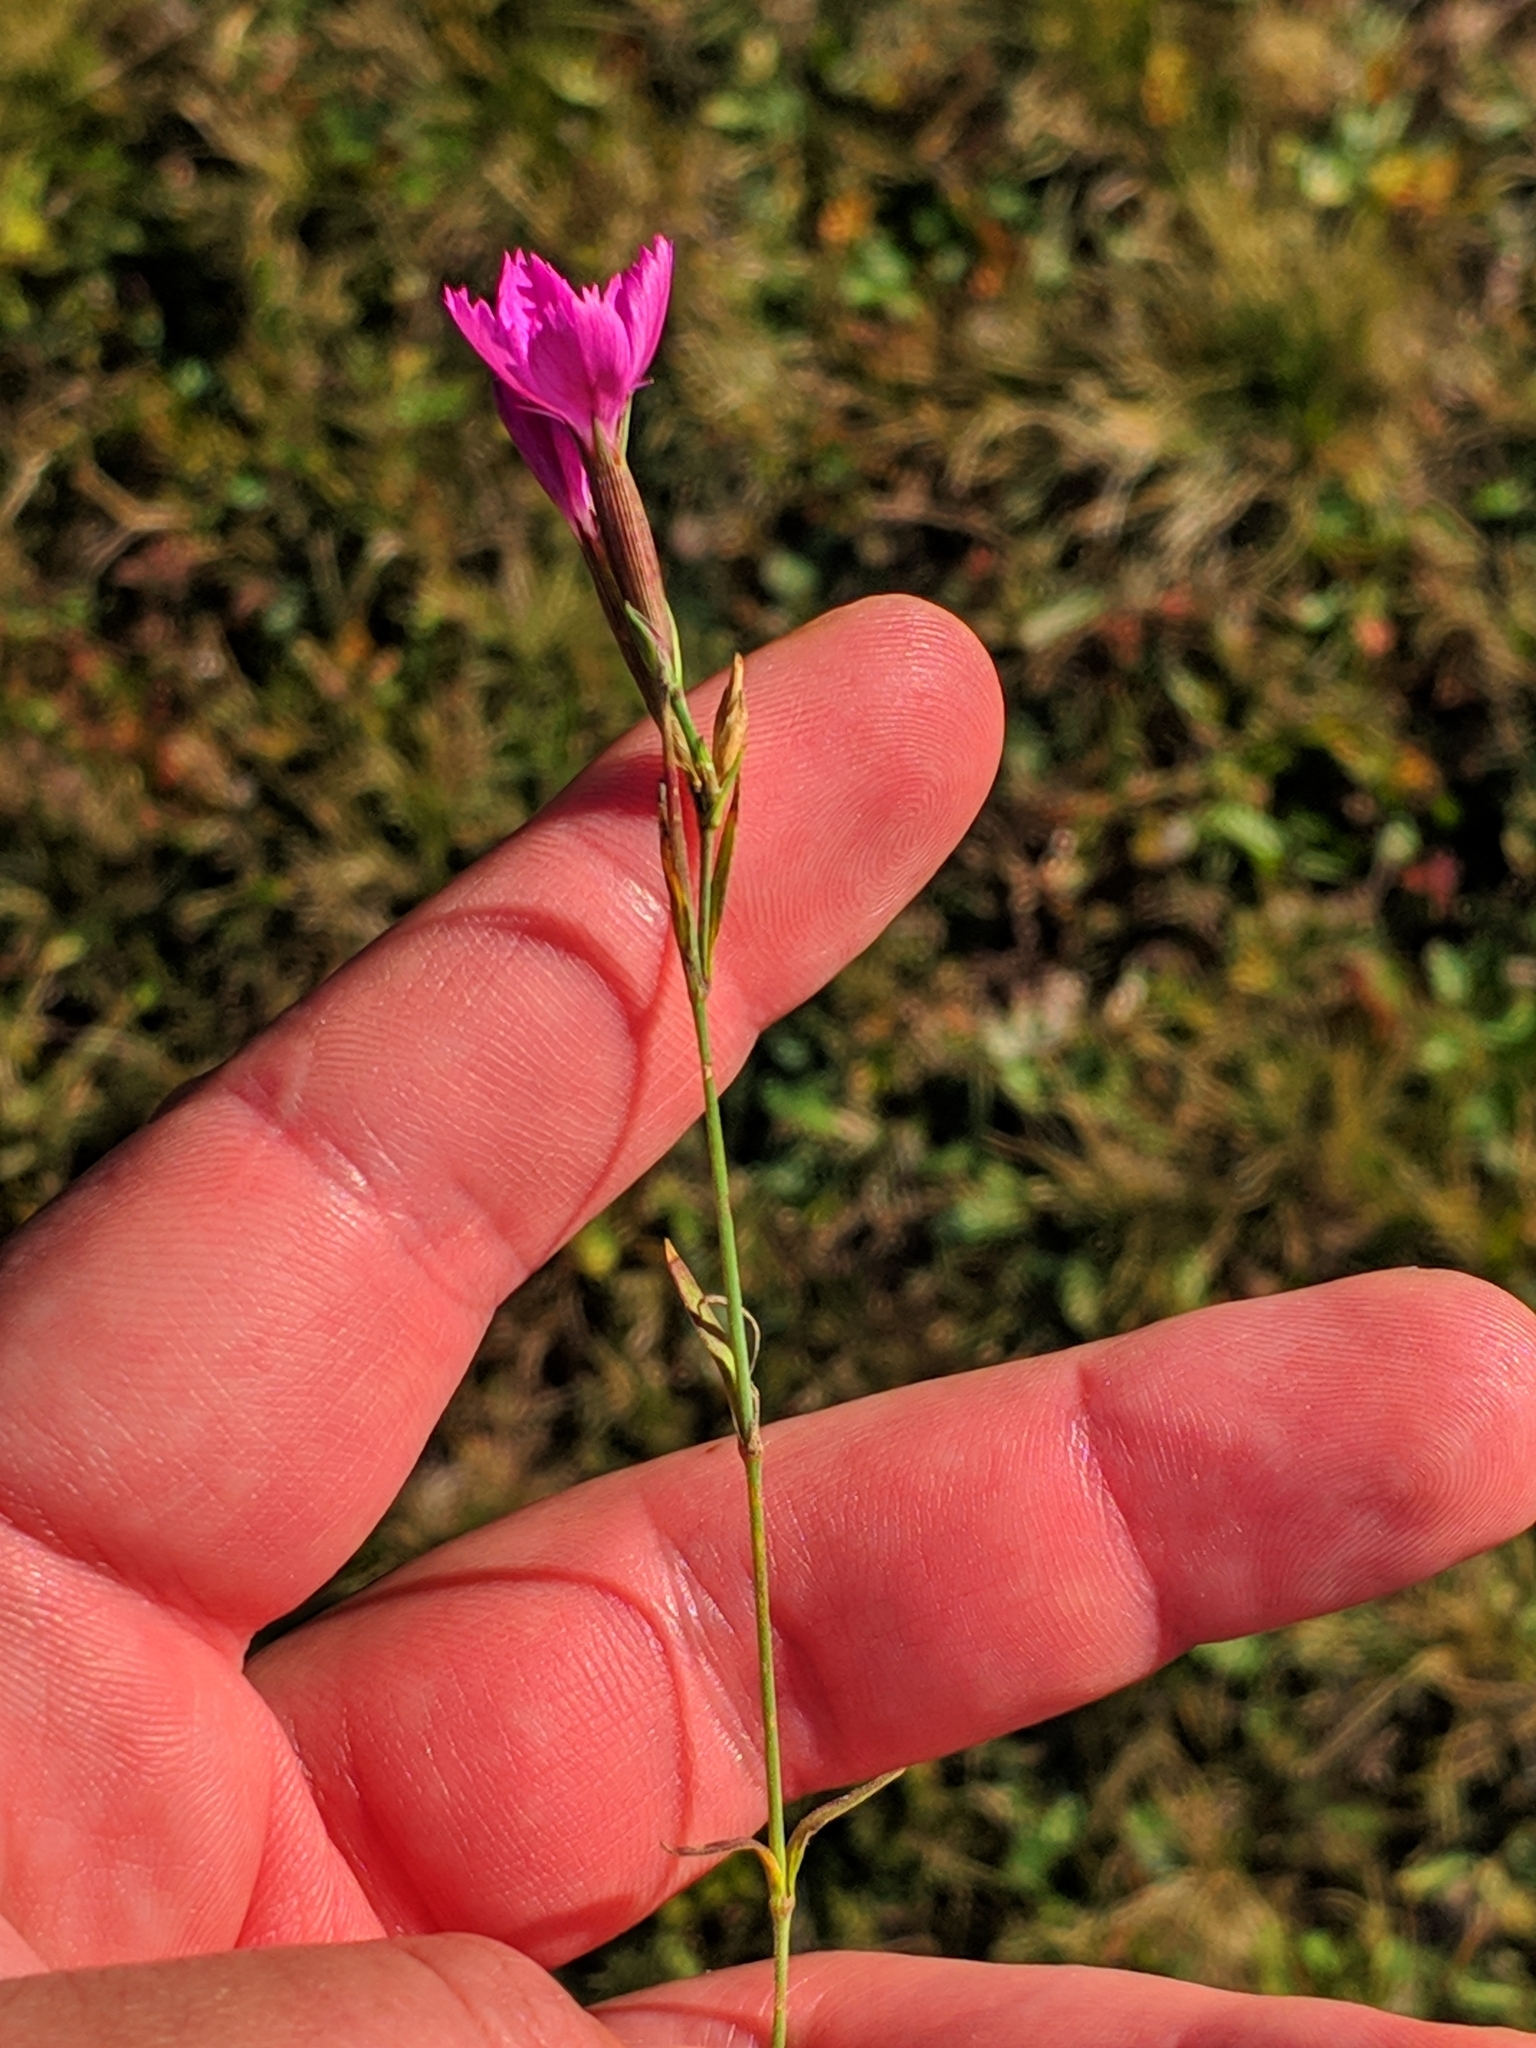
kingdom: Plantae
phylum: Tracheophyta
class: Magnoliopsida
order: Caryophyllales
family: Caryophyllaceae
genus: Dianthus
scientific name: Dianthus deltoides
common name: Maiden pink
